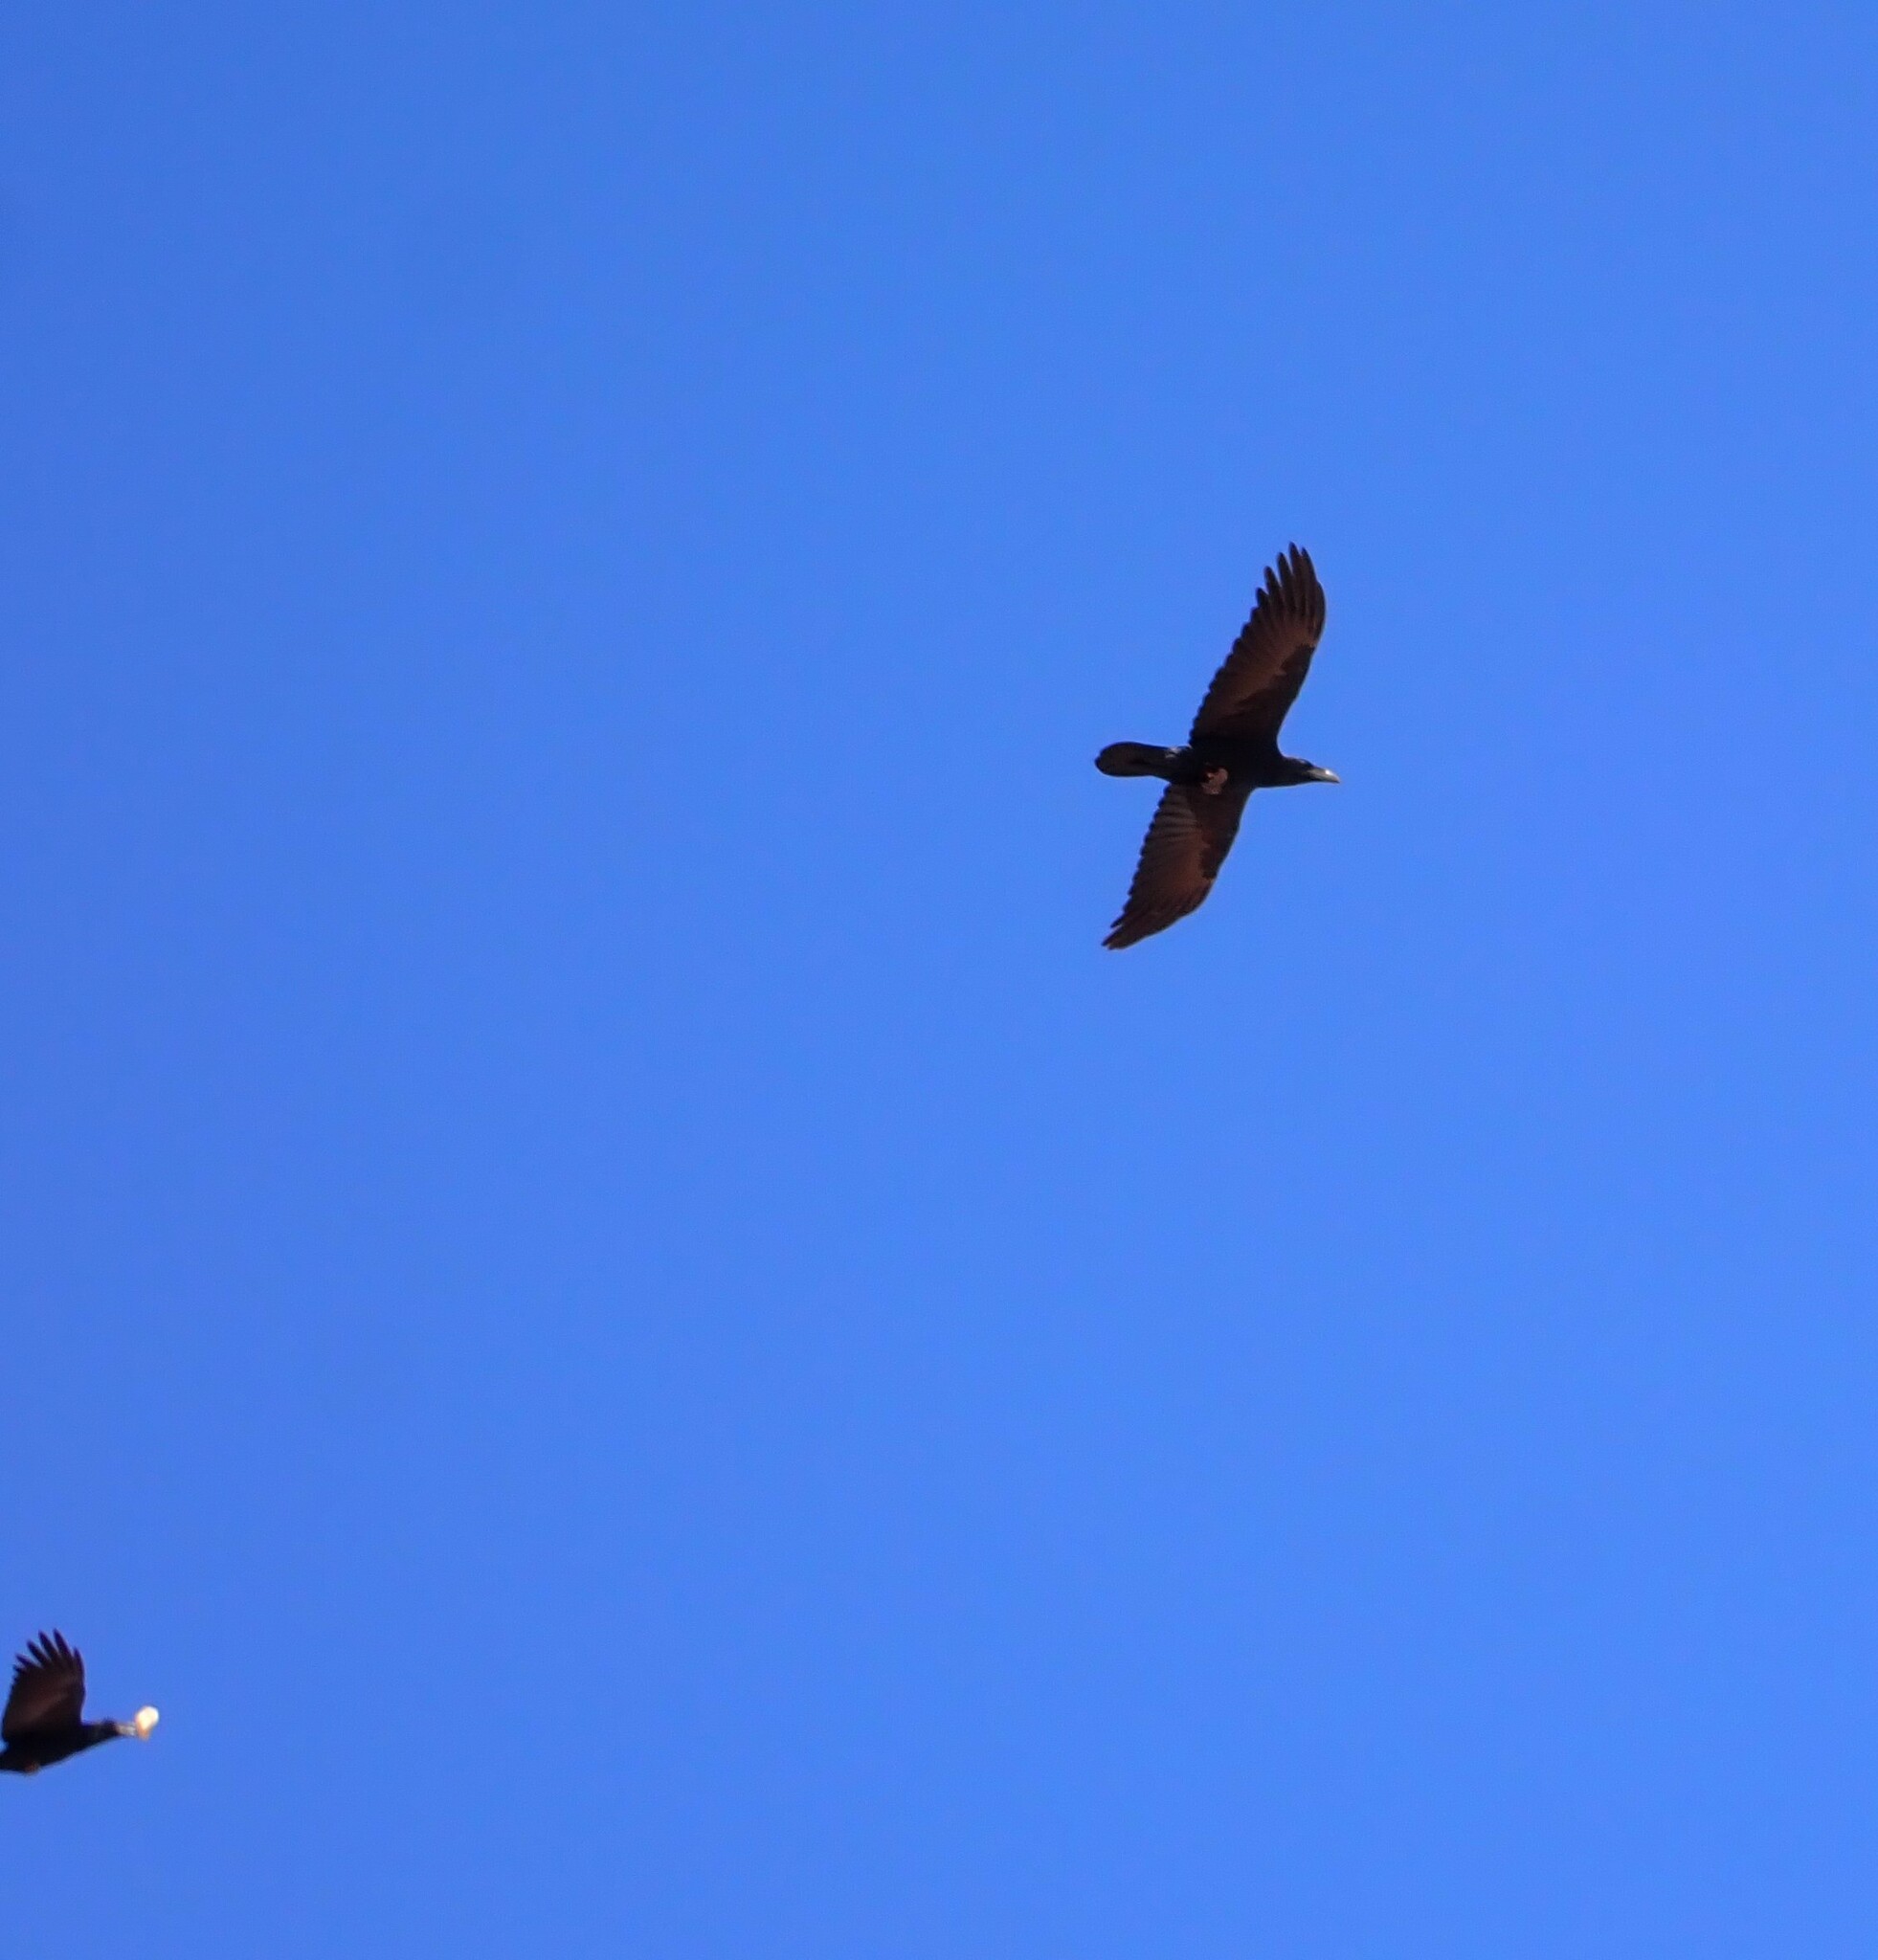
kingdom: Animalia
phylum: Chordata
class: Aves
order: Passeriformes
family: Corvidae
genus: Corvus
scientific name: Corvus corax
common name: Common raven
